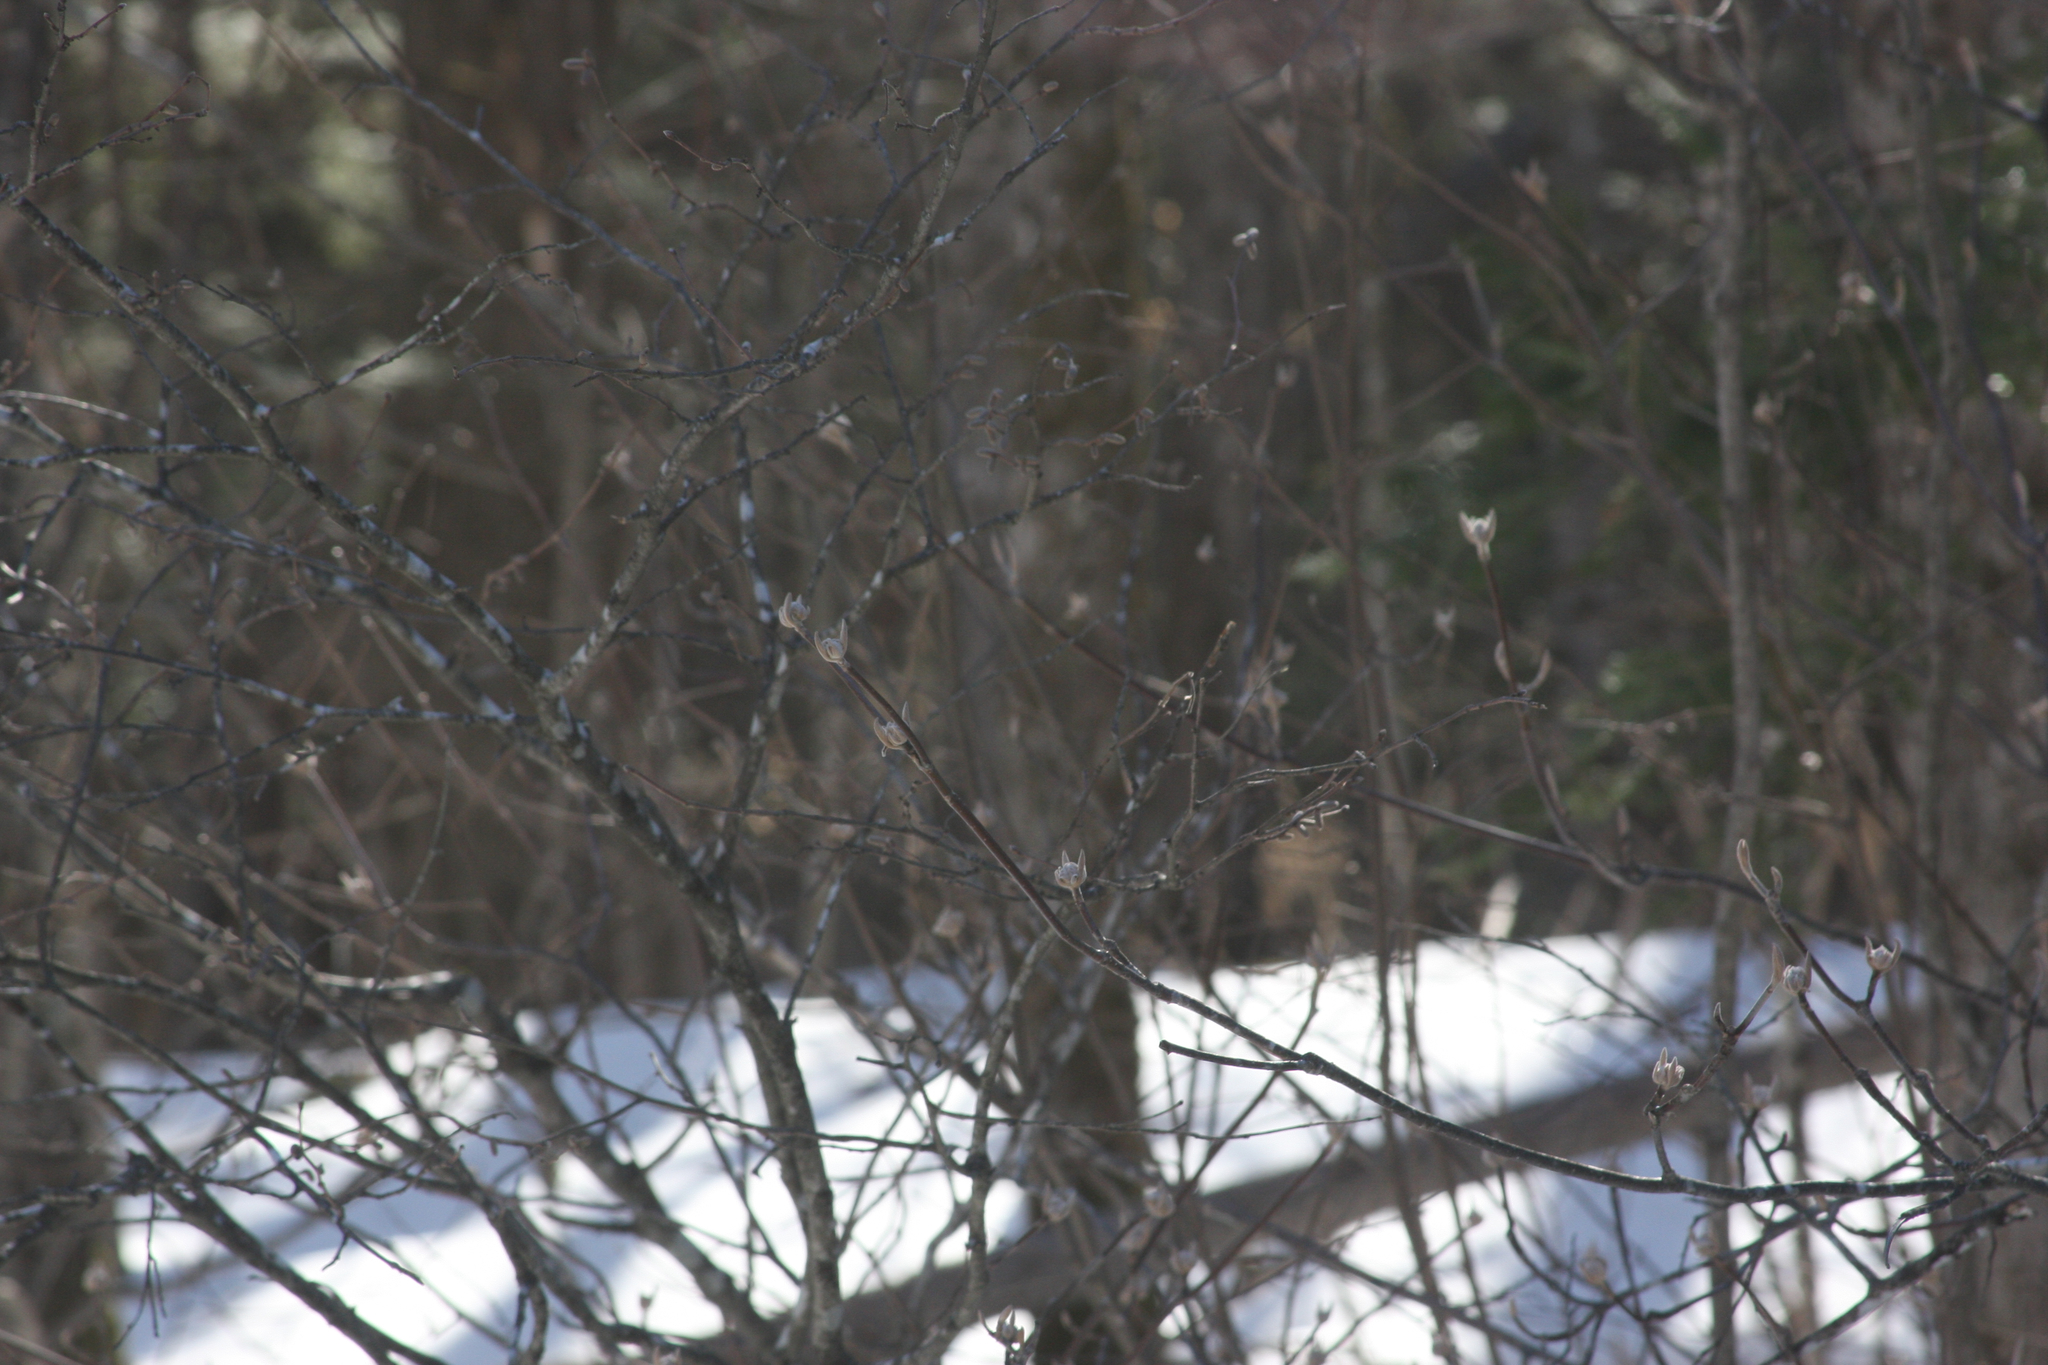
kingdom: Plantae
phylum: Tracheophyta
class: Magnoliopsida
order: Dipsacales
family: Viburnaceae
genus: Viburnum
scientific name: Viburnum lantanoides
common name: Hobblebush
